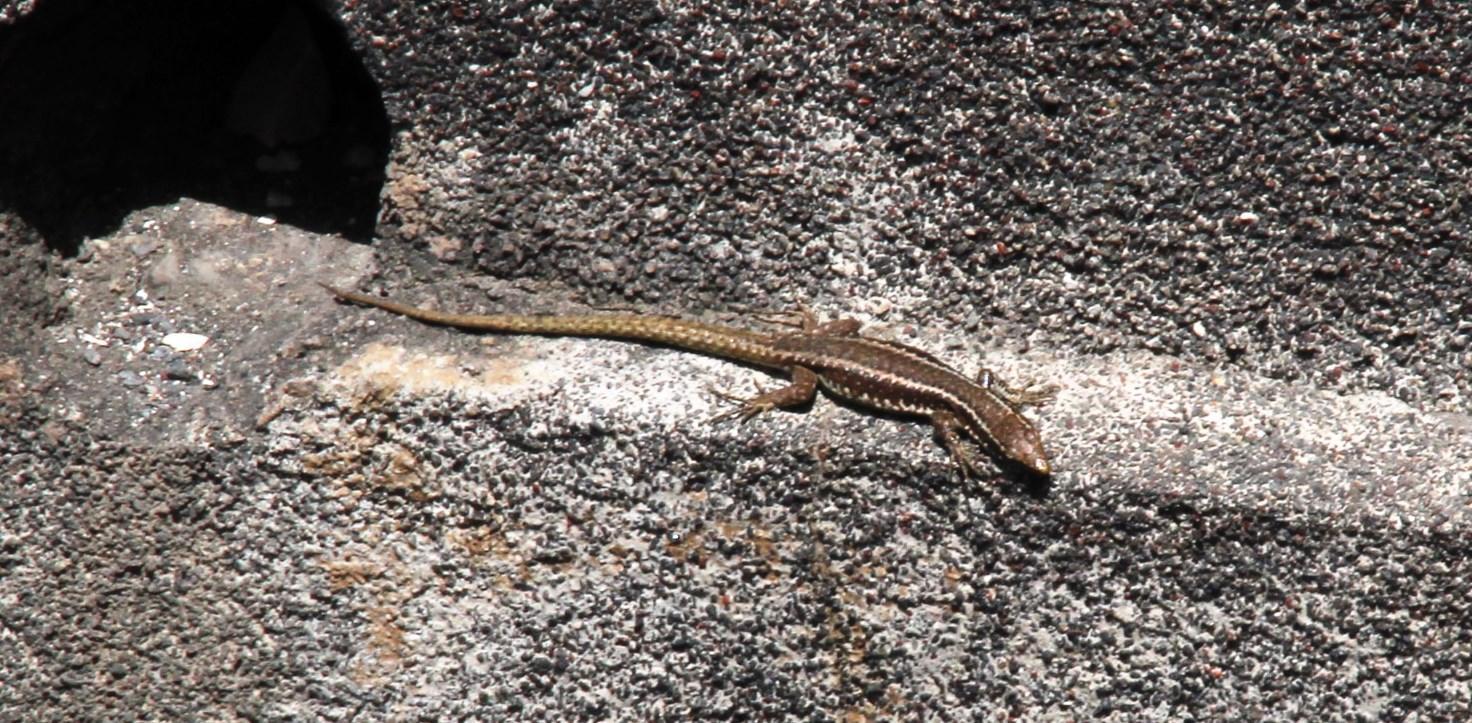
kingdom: Animalia
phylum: Chordata
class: Squamata
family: Lacertidae
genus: Teira
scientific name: Teira dugesii
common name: Madeira lizard
